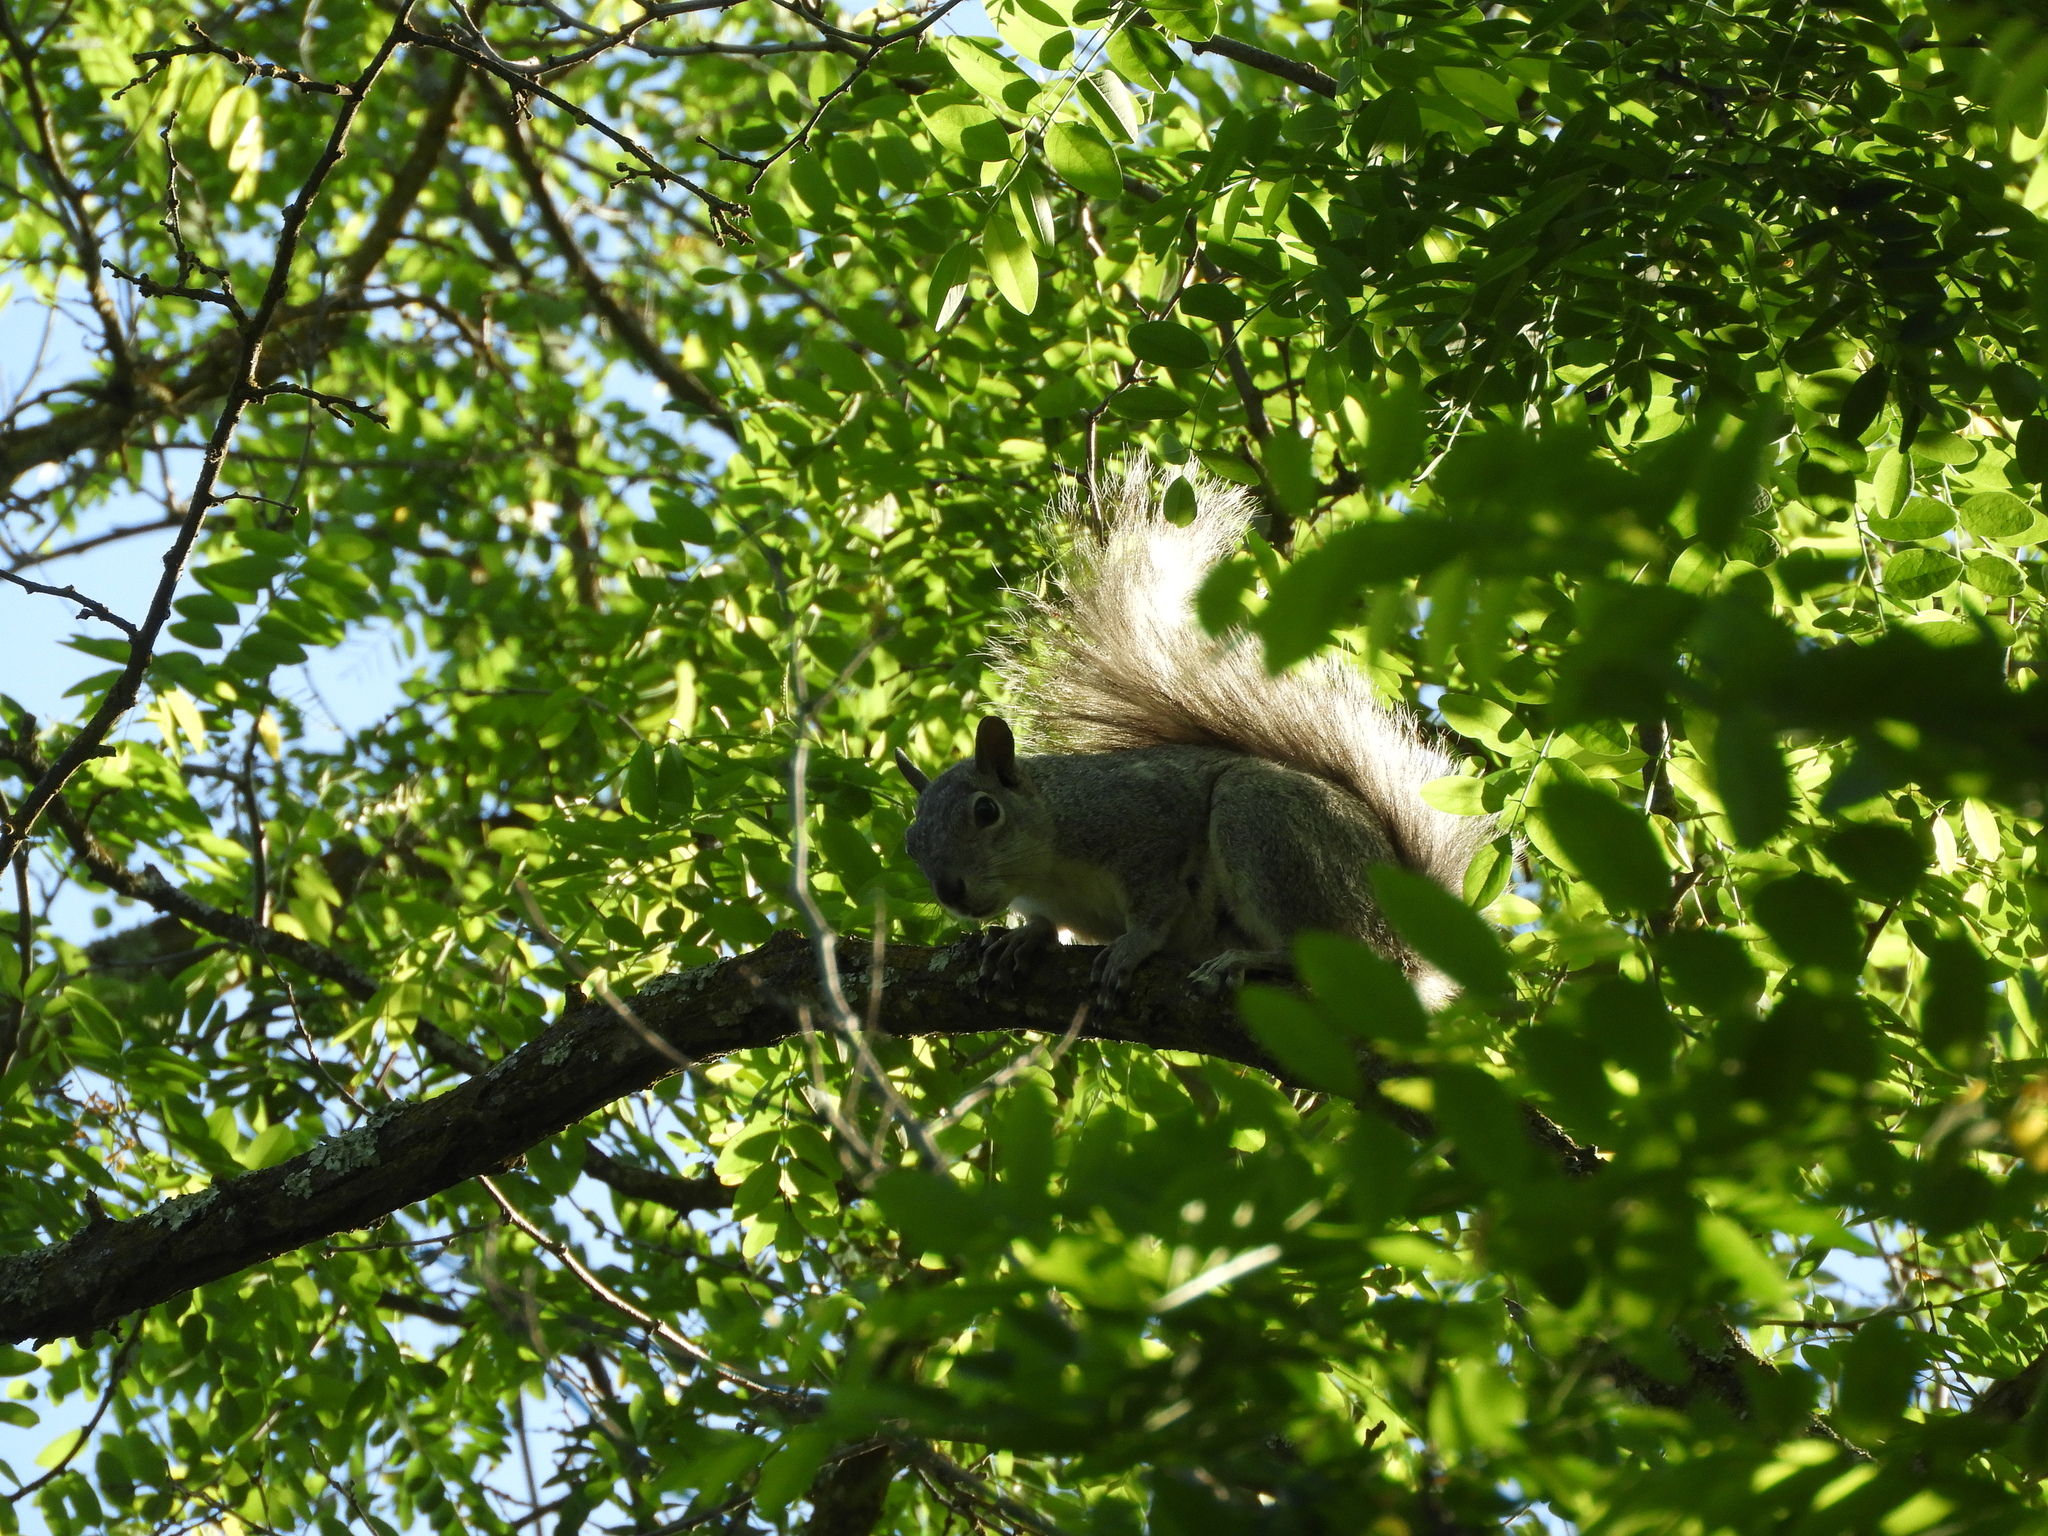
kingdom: Animalia
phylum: Chordata
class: Mammalia
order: Rodentia
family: Sciuridae
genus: Sciurus
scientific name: Sciurus niger
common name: Fox squirrel
